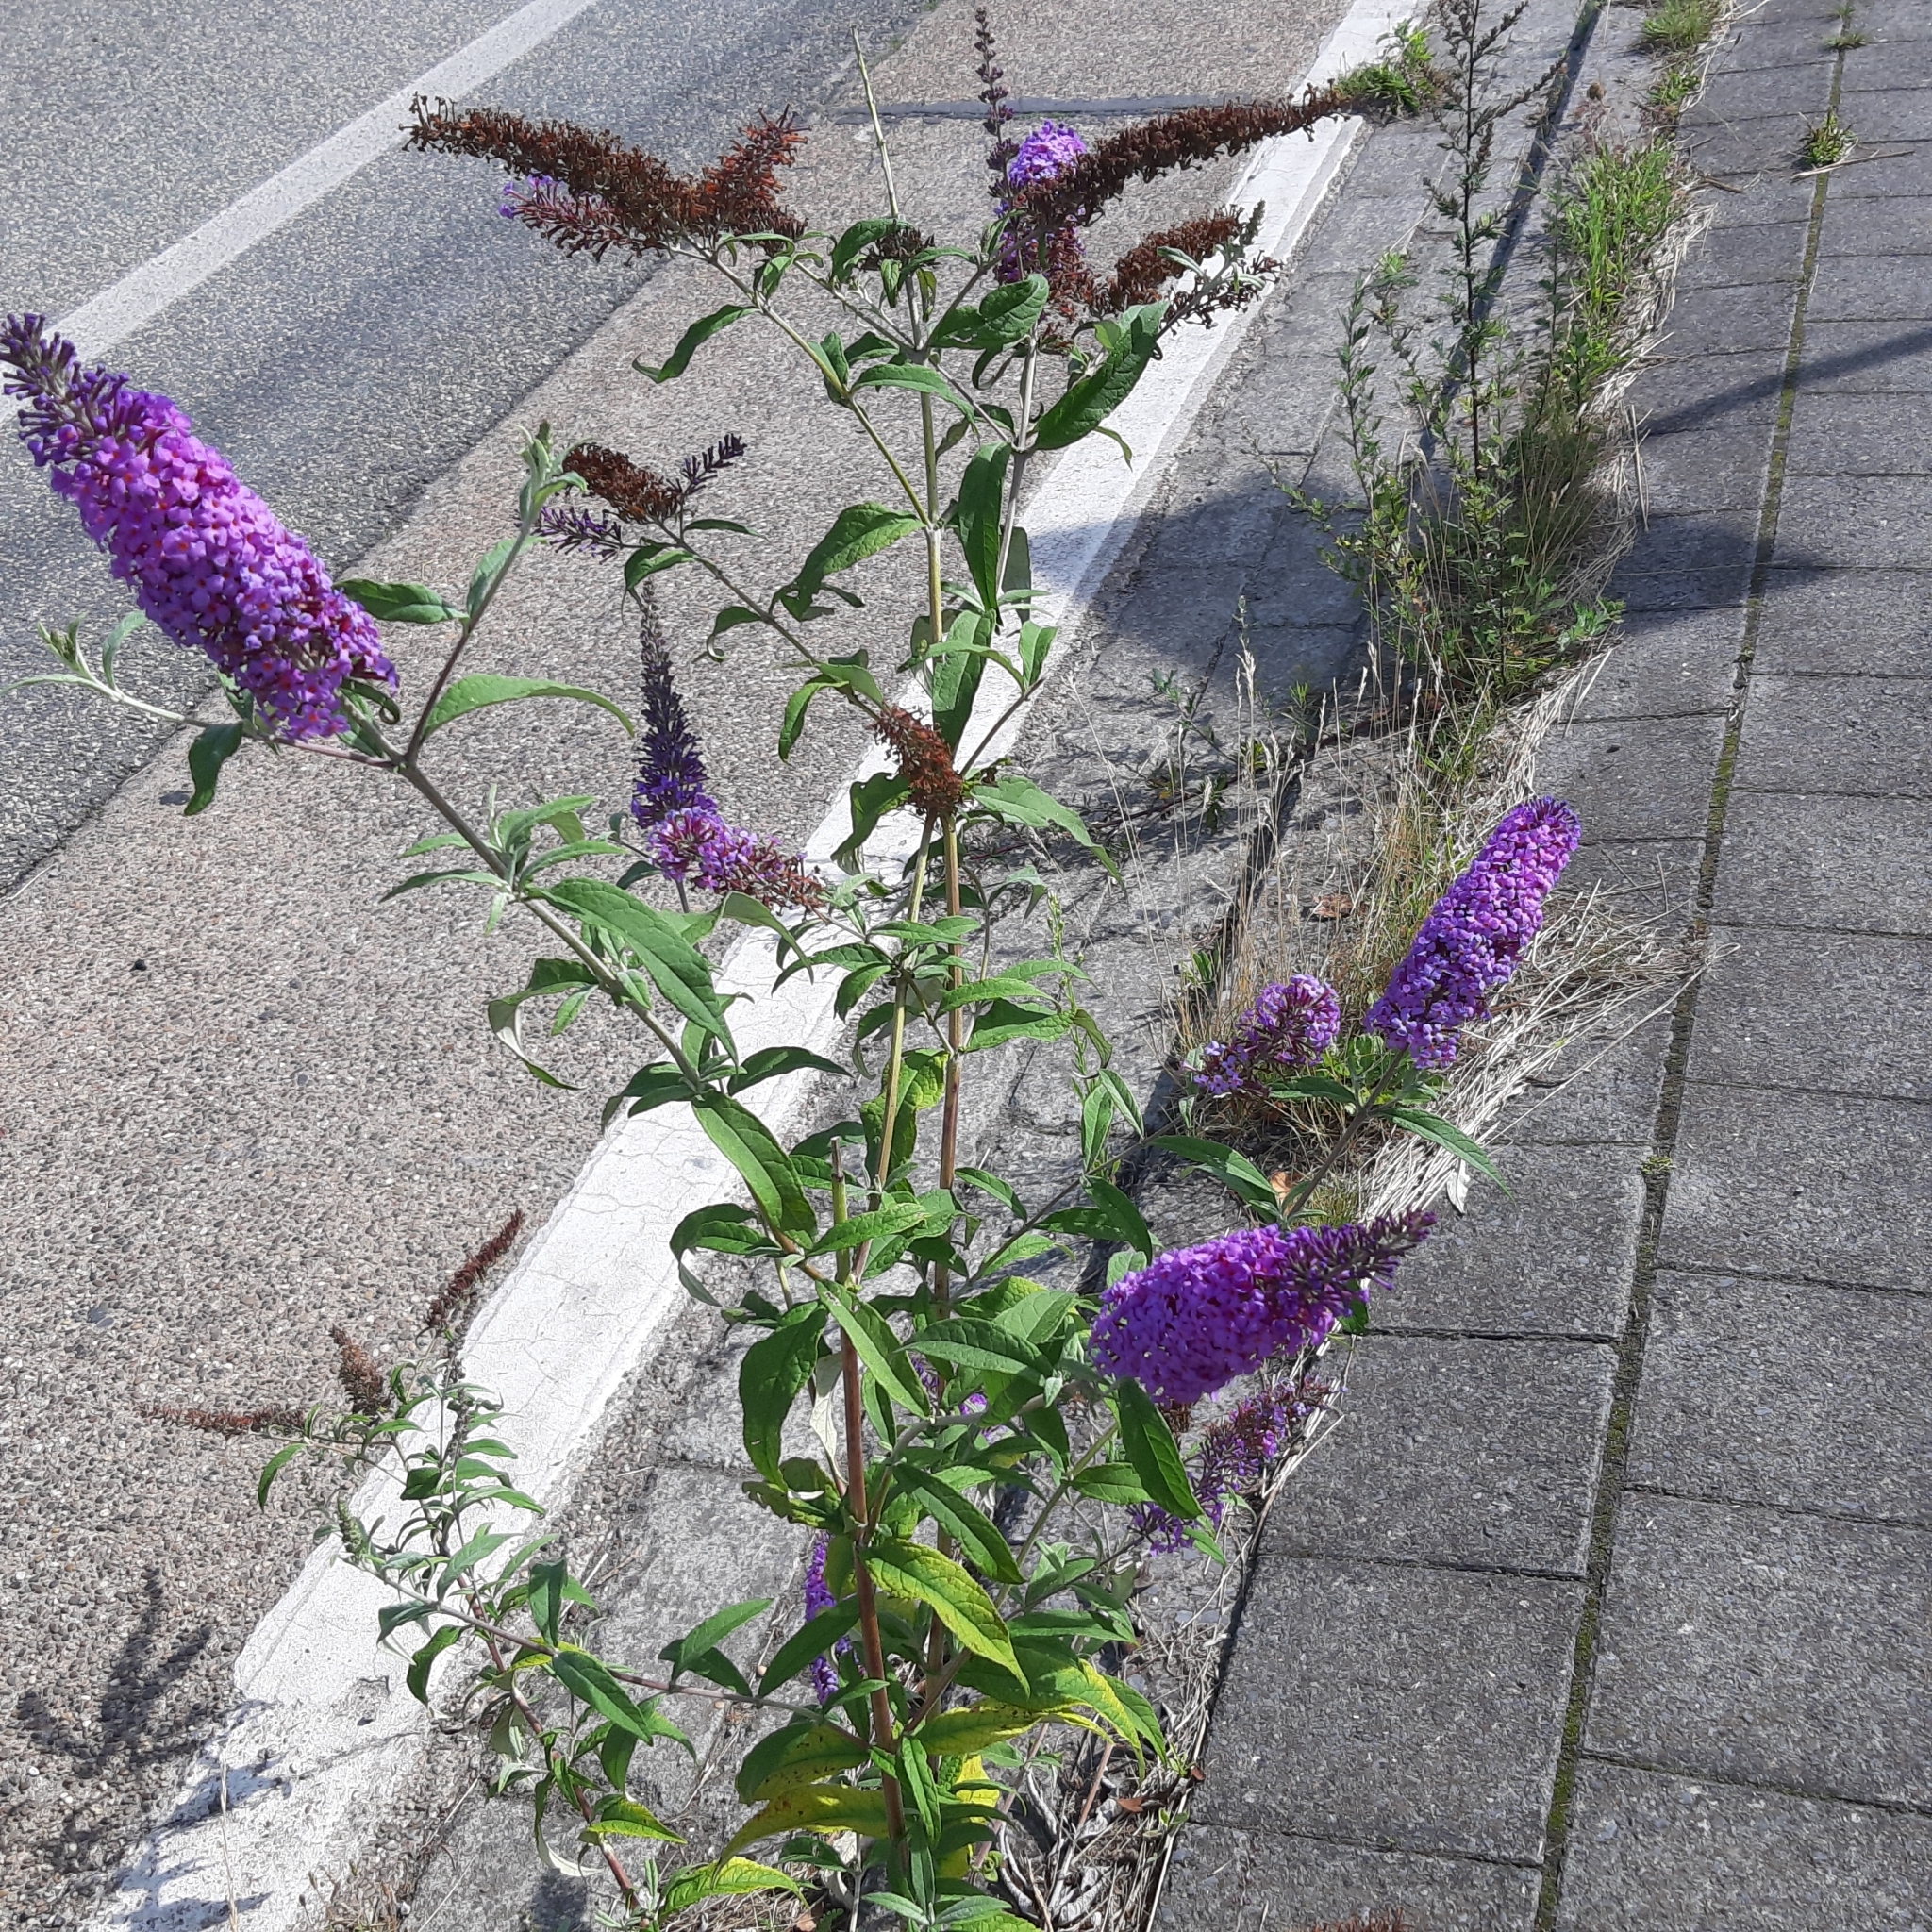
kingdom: Plantae
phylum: Tracheophyta
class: Magnoliopsida
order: Lamiales
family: Scrophulariaceae
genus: Buddleja
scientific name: Buddleja davidii
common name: Butterfly-bush
